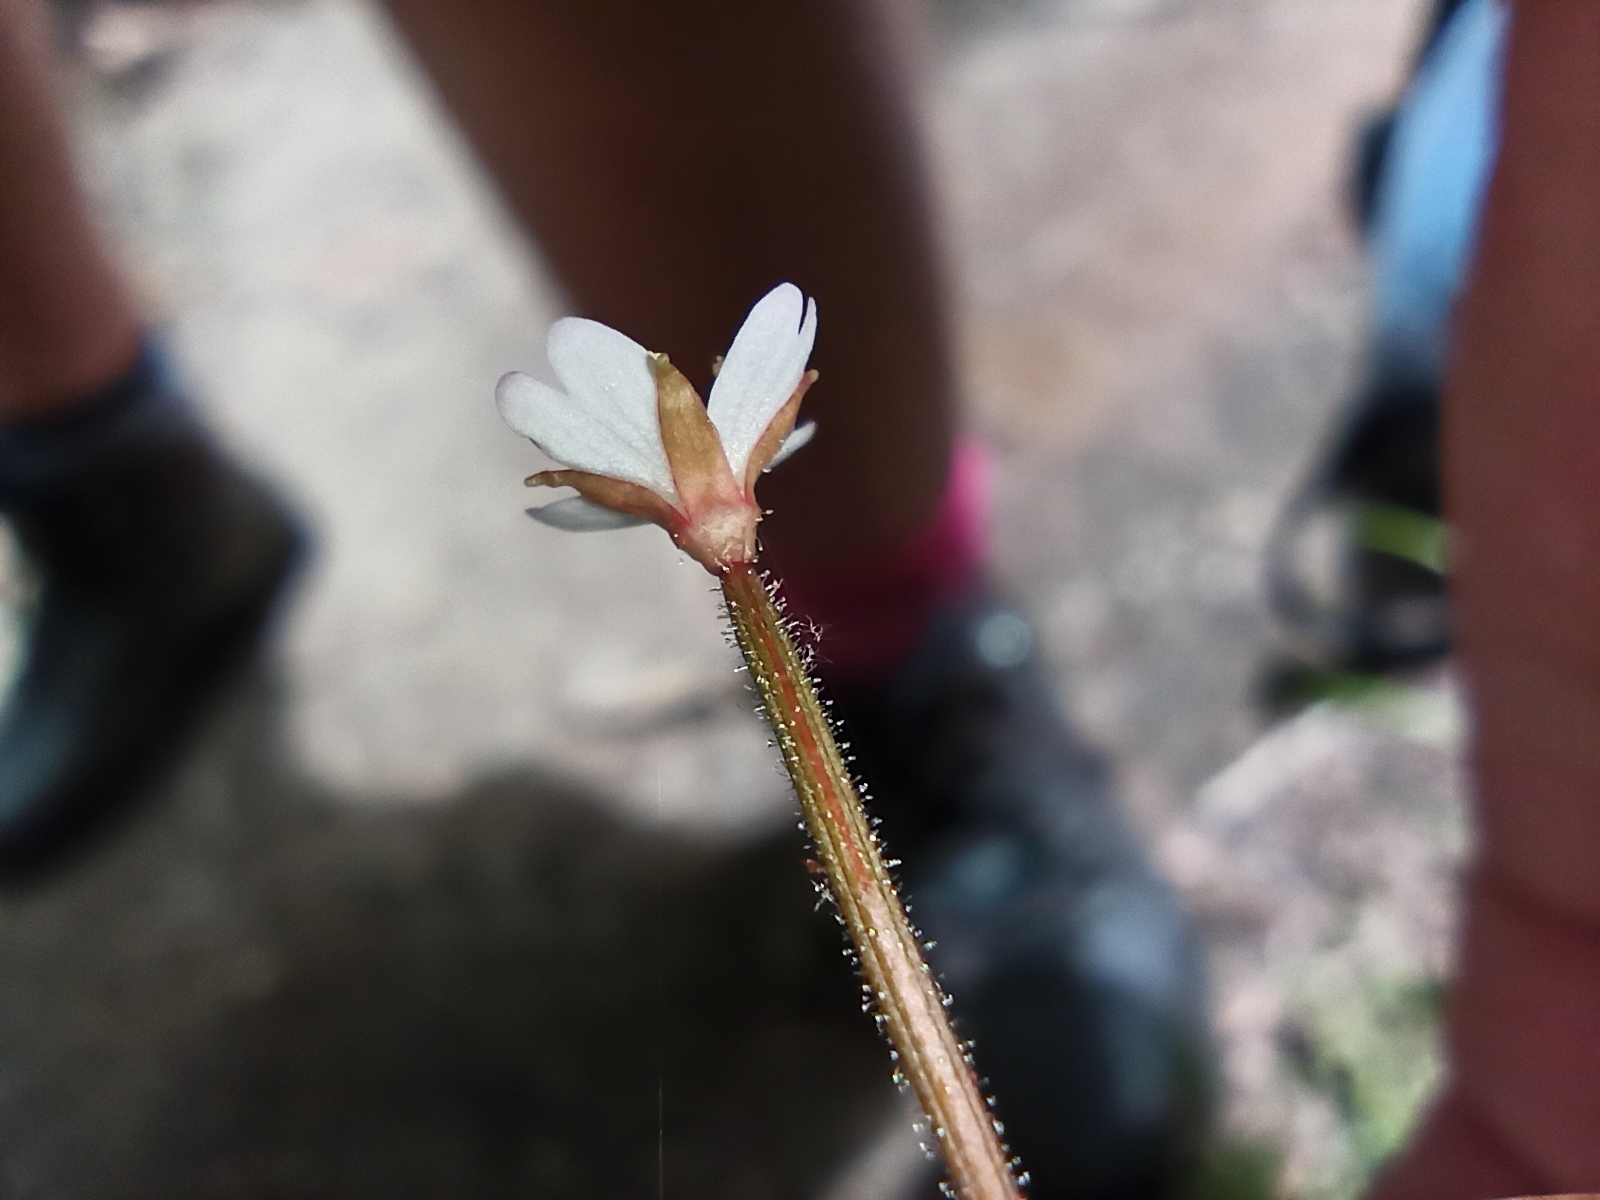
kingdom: Plantae
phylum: Tracheophyta
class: Magnoliopsida
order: Myrtales
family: Onagraceae
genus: Epilobium
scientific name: Epilobium rotundifolium
